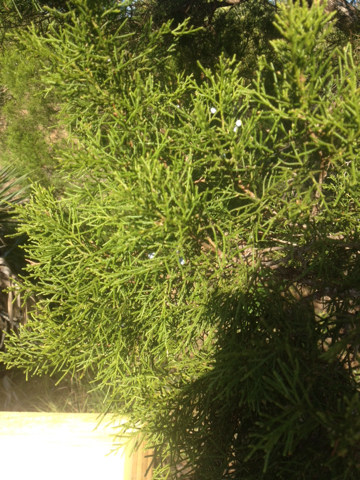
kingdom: Plantae
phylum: Tracheophyta
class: Pinopsida
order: Pinales
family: Cupressaceae
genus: Juniperus
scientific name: Juniperus virginiana
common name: Red juniper
